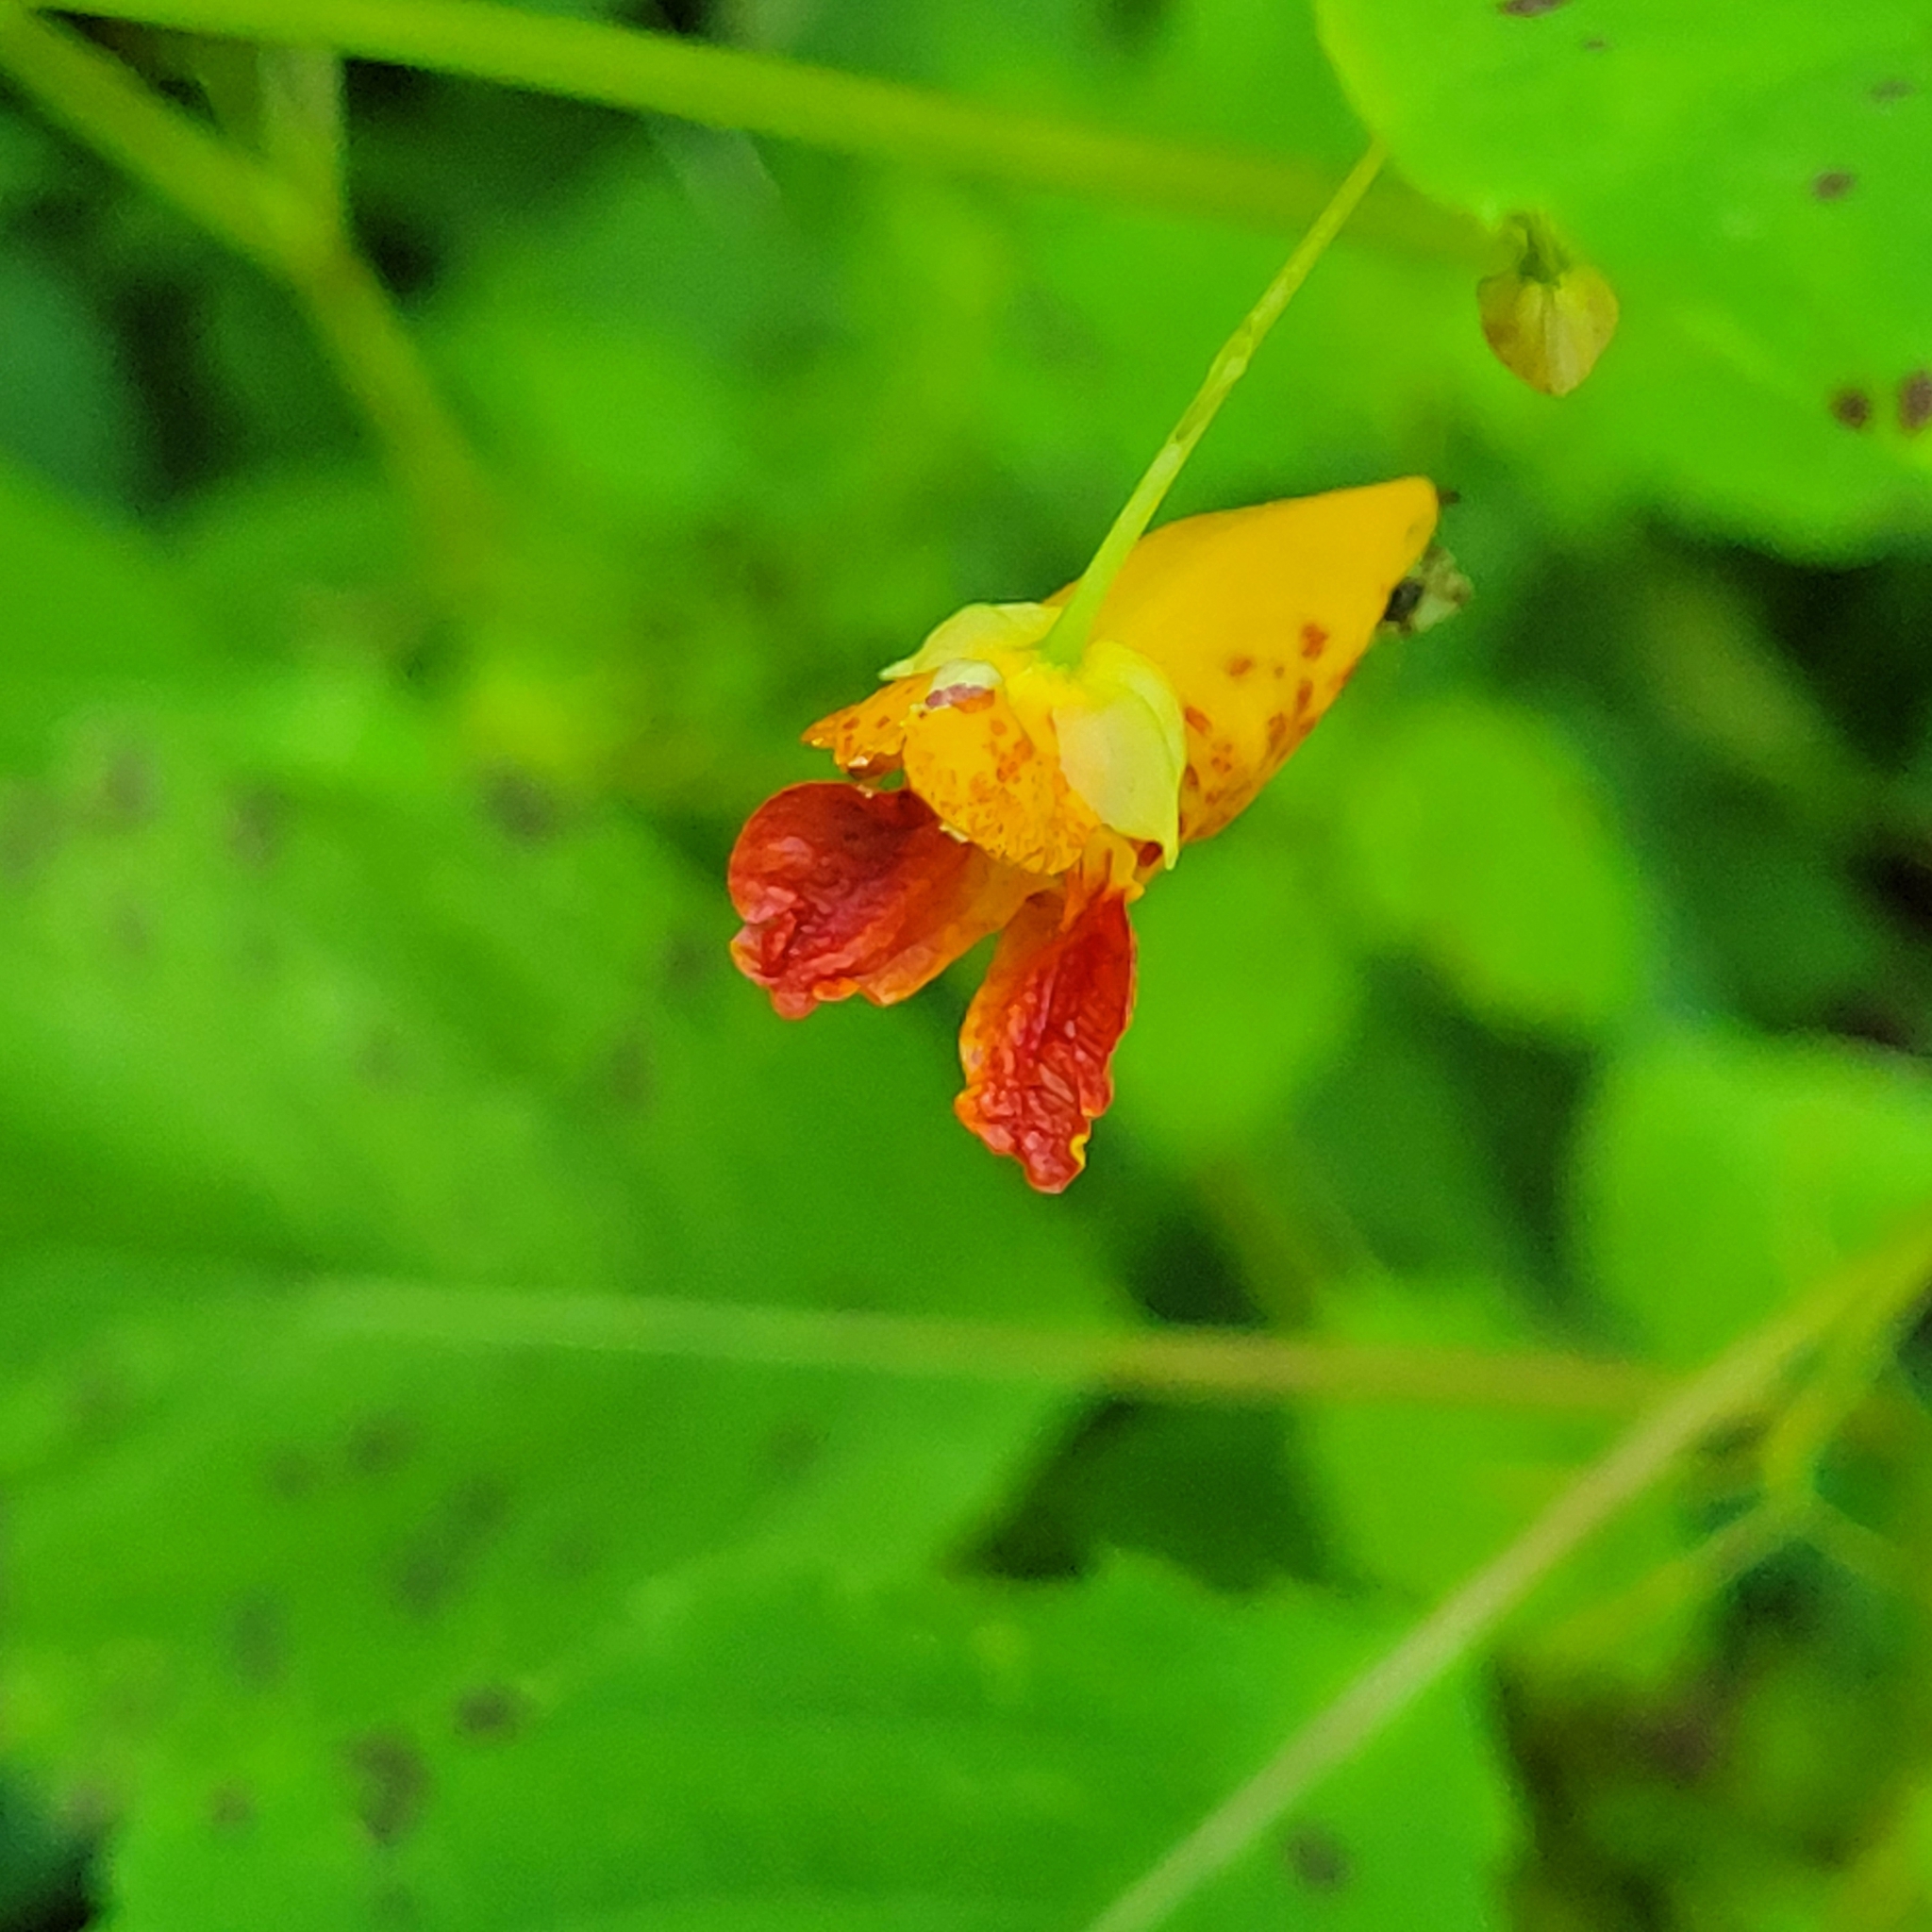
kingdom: Plantae
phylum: Tracheophyta
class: Magnoliopsida
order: Ericales
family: Balsaminaceae
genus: Impatiens
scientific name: Impatiens capensis
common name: Orange balsam
